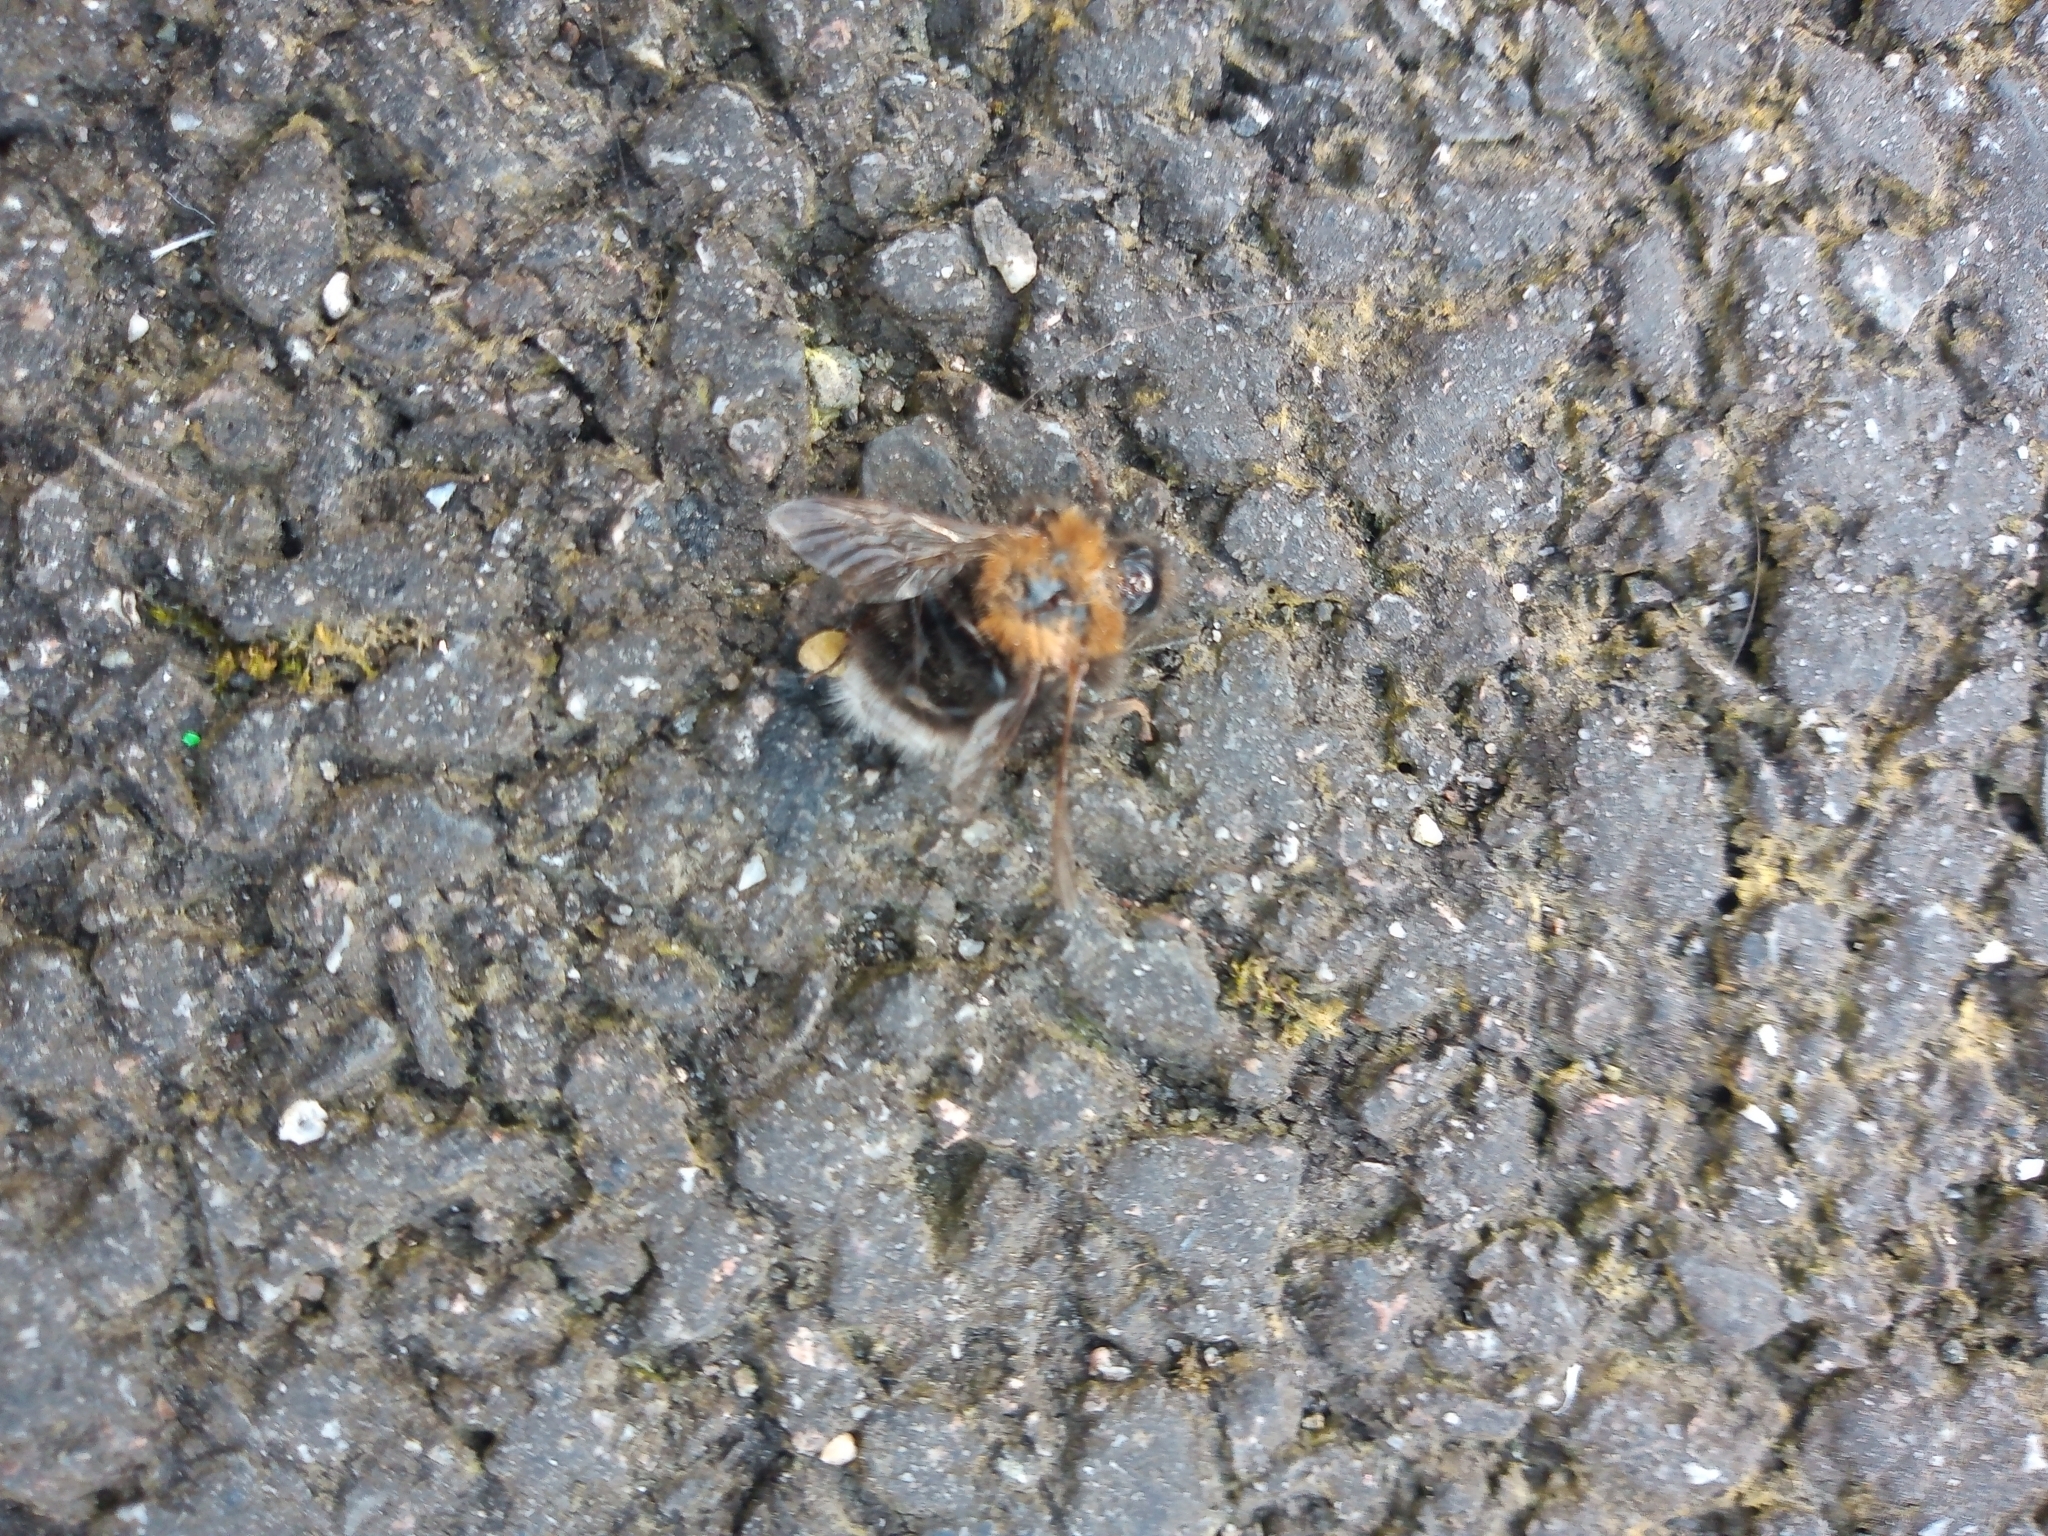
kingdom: Animalia
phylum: Arthropoda
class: Insecta
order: Hymenoptera
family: Apidae
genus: Bombus
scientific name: Bombus hypnorum
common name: New garden bumblebee
